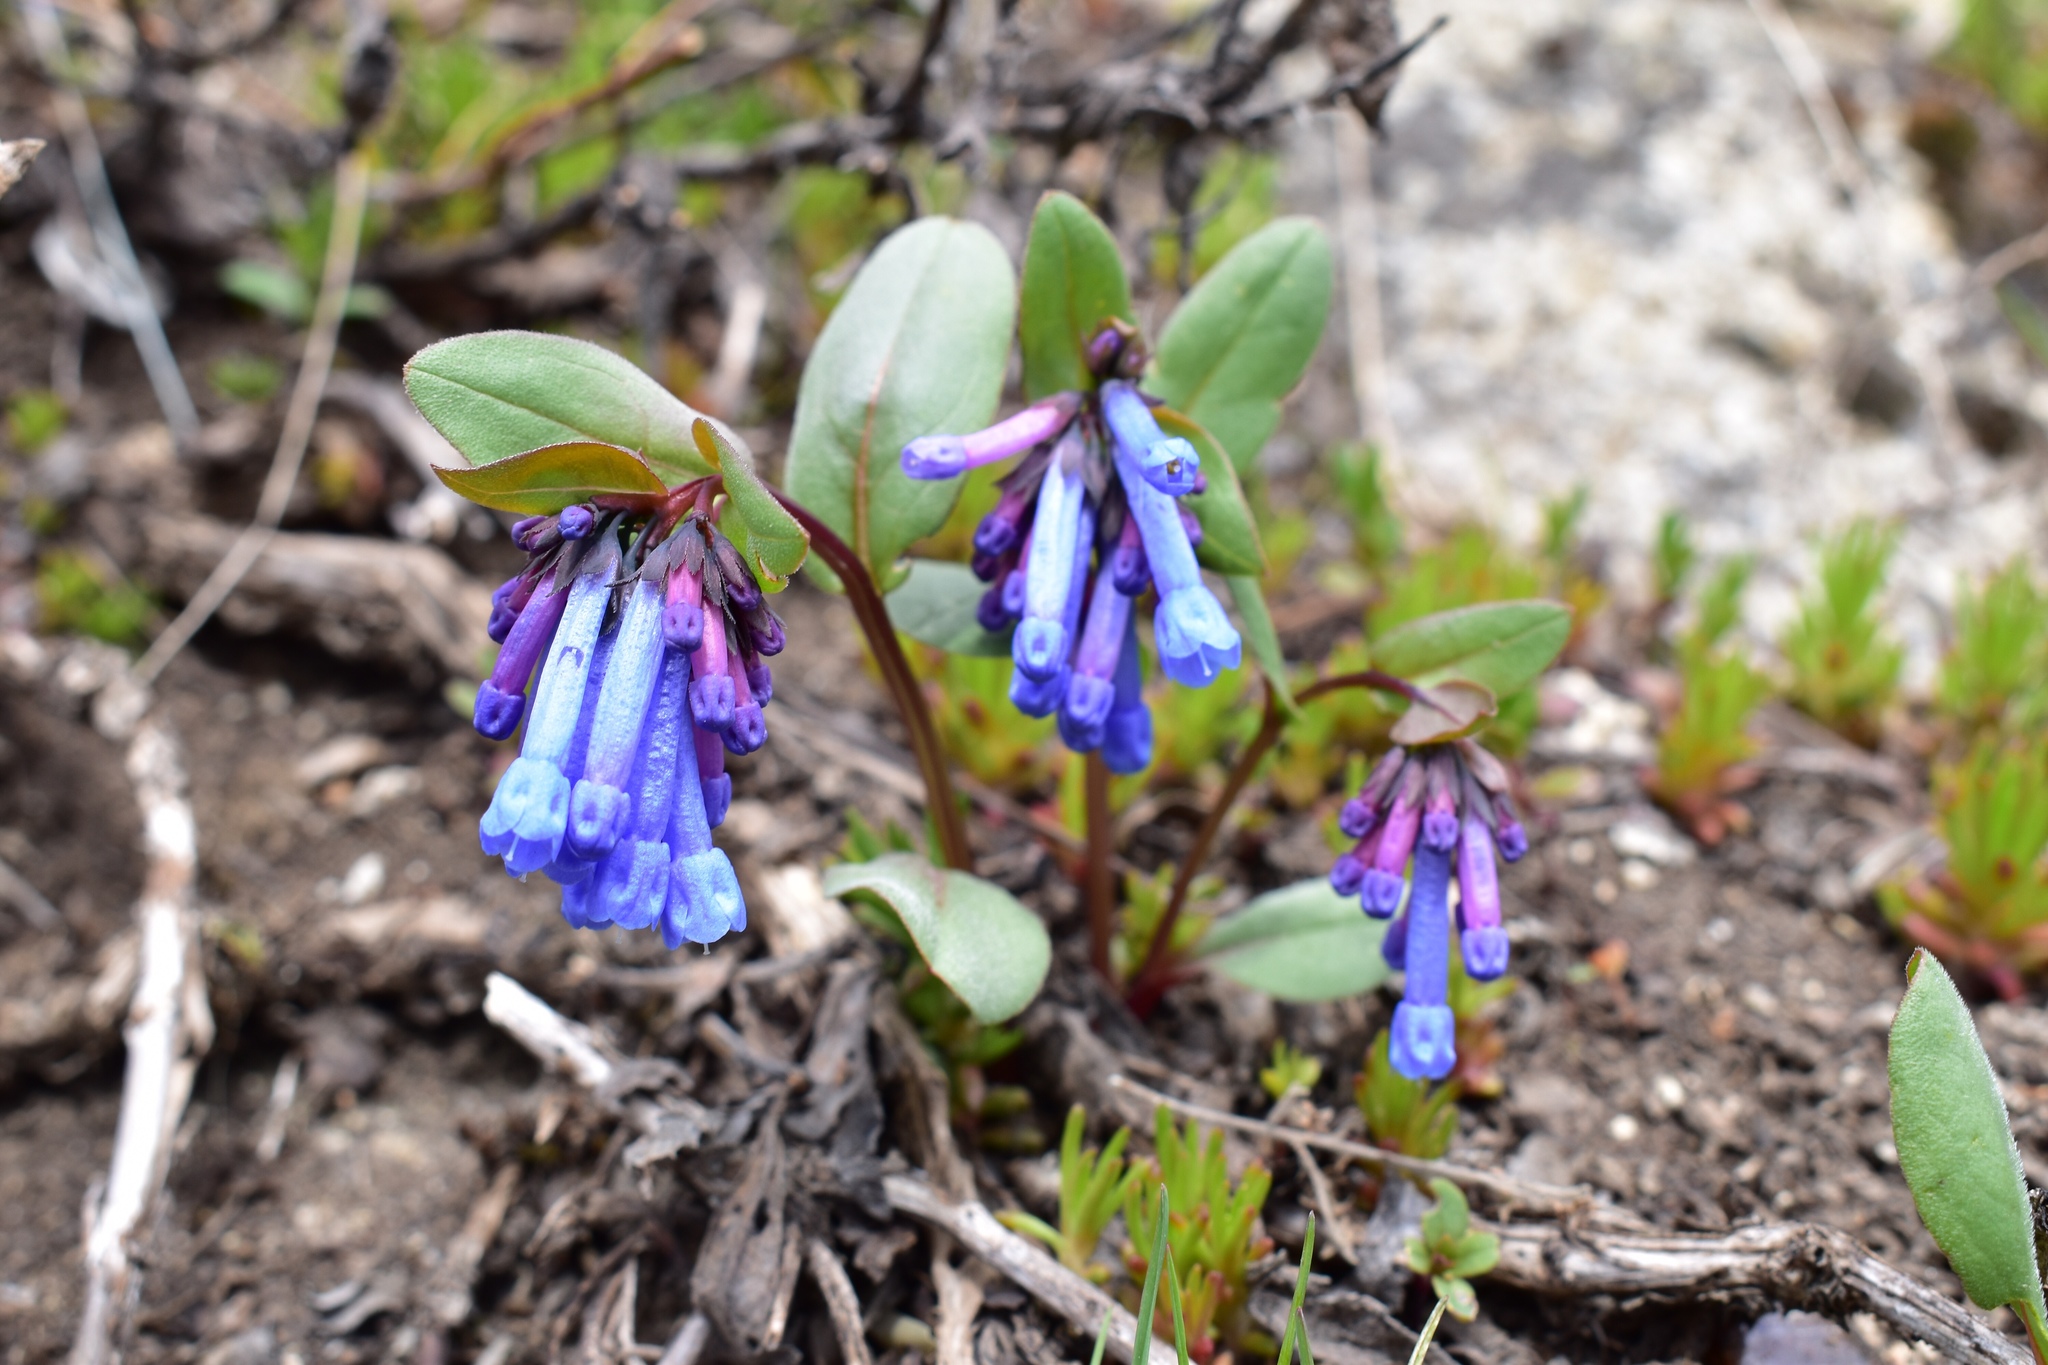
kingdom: Plantae
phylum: Tracheophyta
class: Magnoliopsida
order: Boraginales
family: Boraginaceae
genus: Mertensia
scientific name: Mertensia longiflora
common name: Large-flowered bluebells
